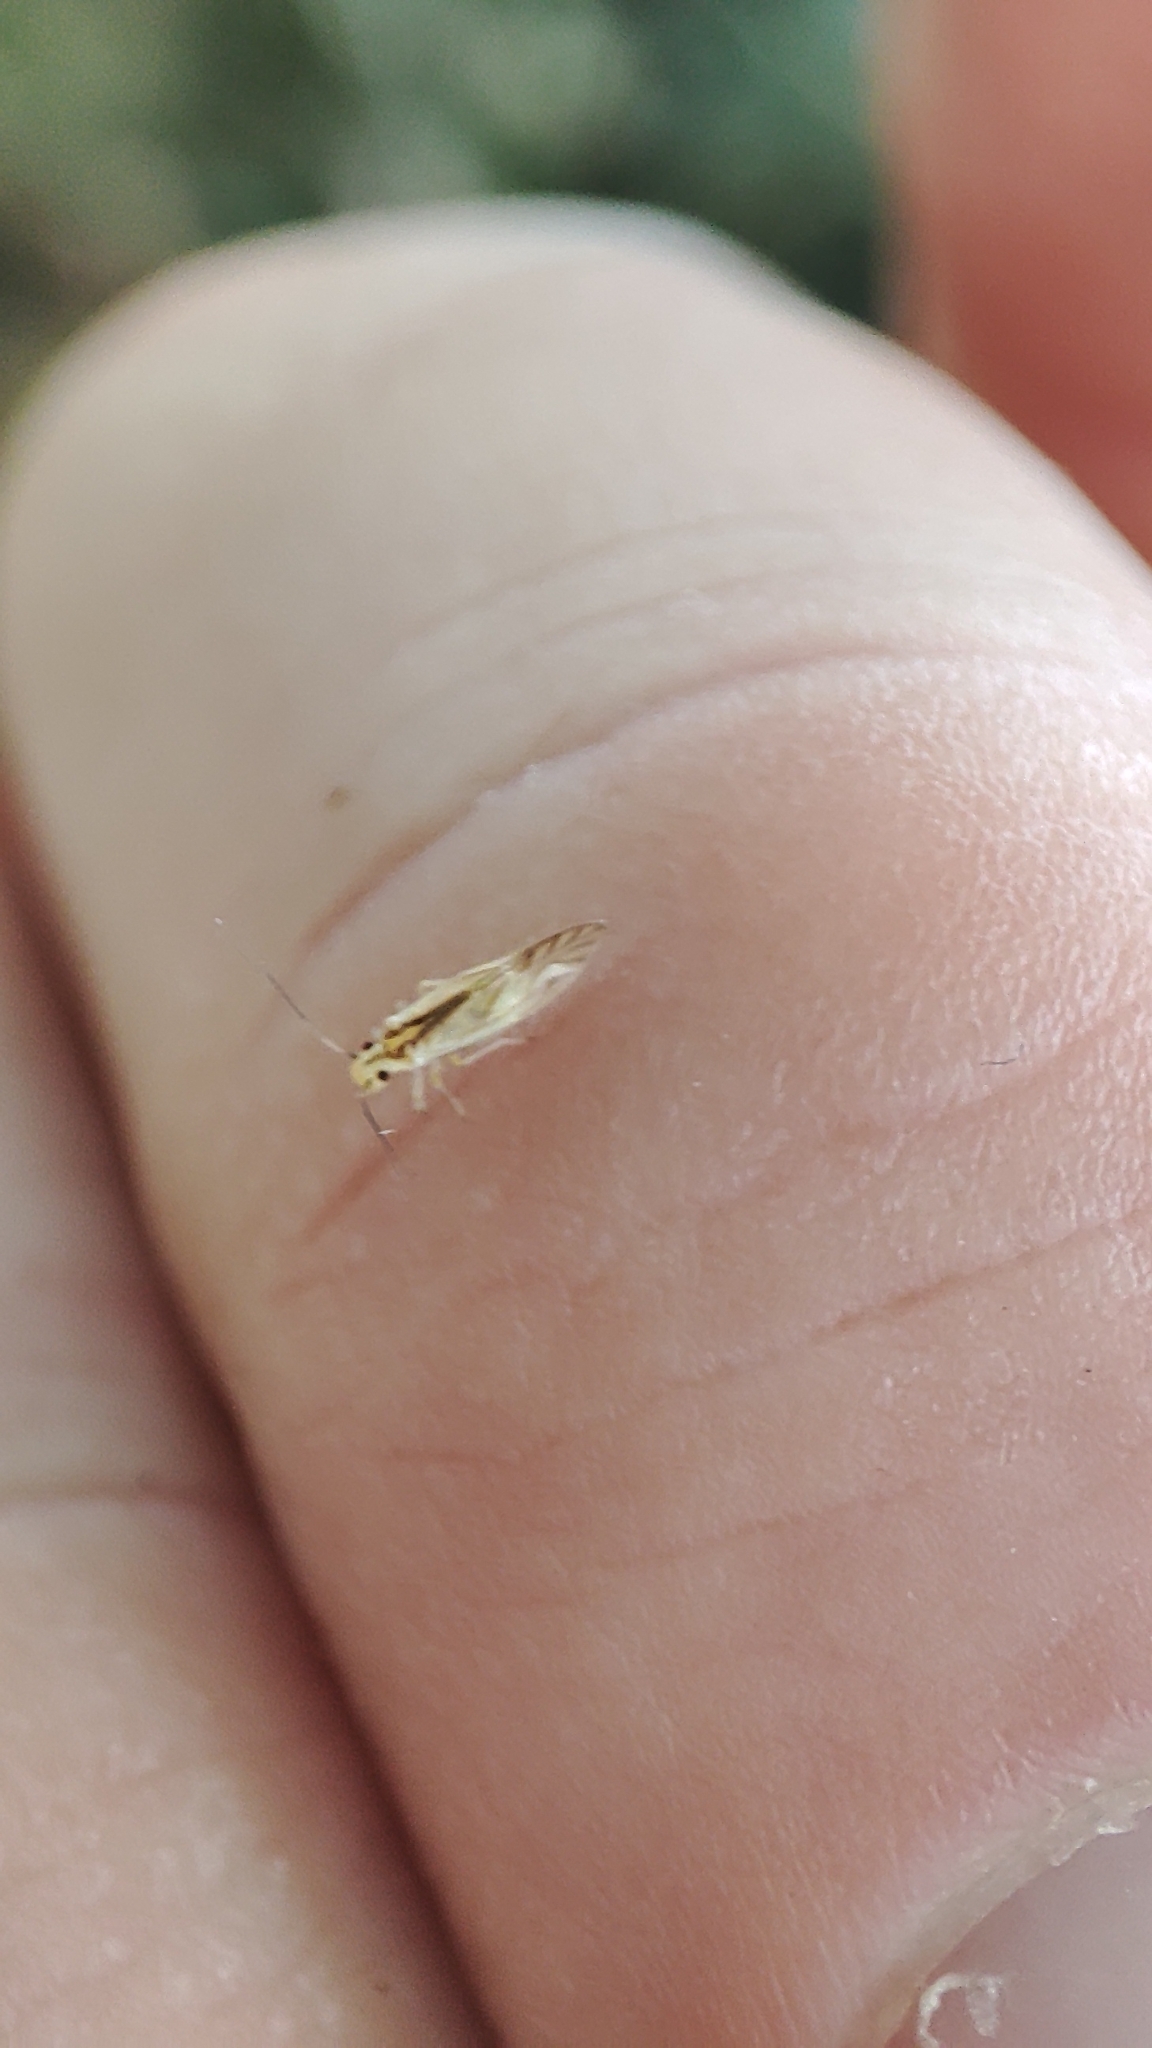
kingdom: Animalia
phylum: Arthropoda
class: Insecta
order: Psocodea
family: Caeciliusidae
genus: Valenzuela
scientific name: Valenzuela flavidus
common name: Yellow barklouse
